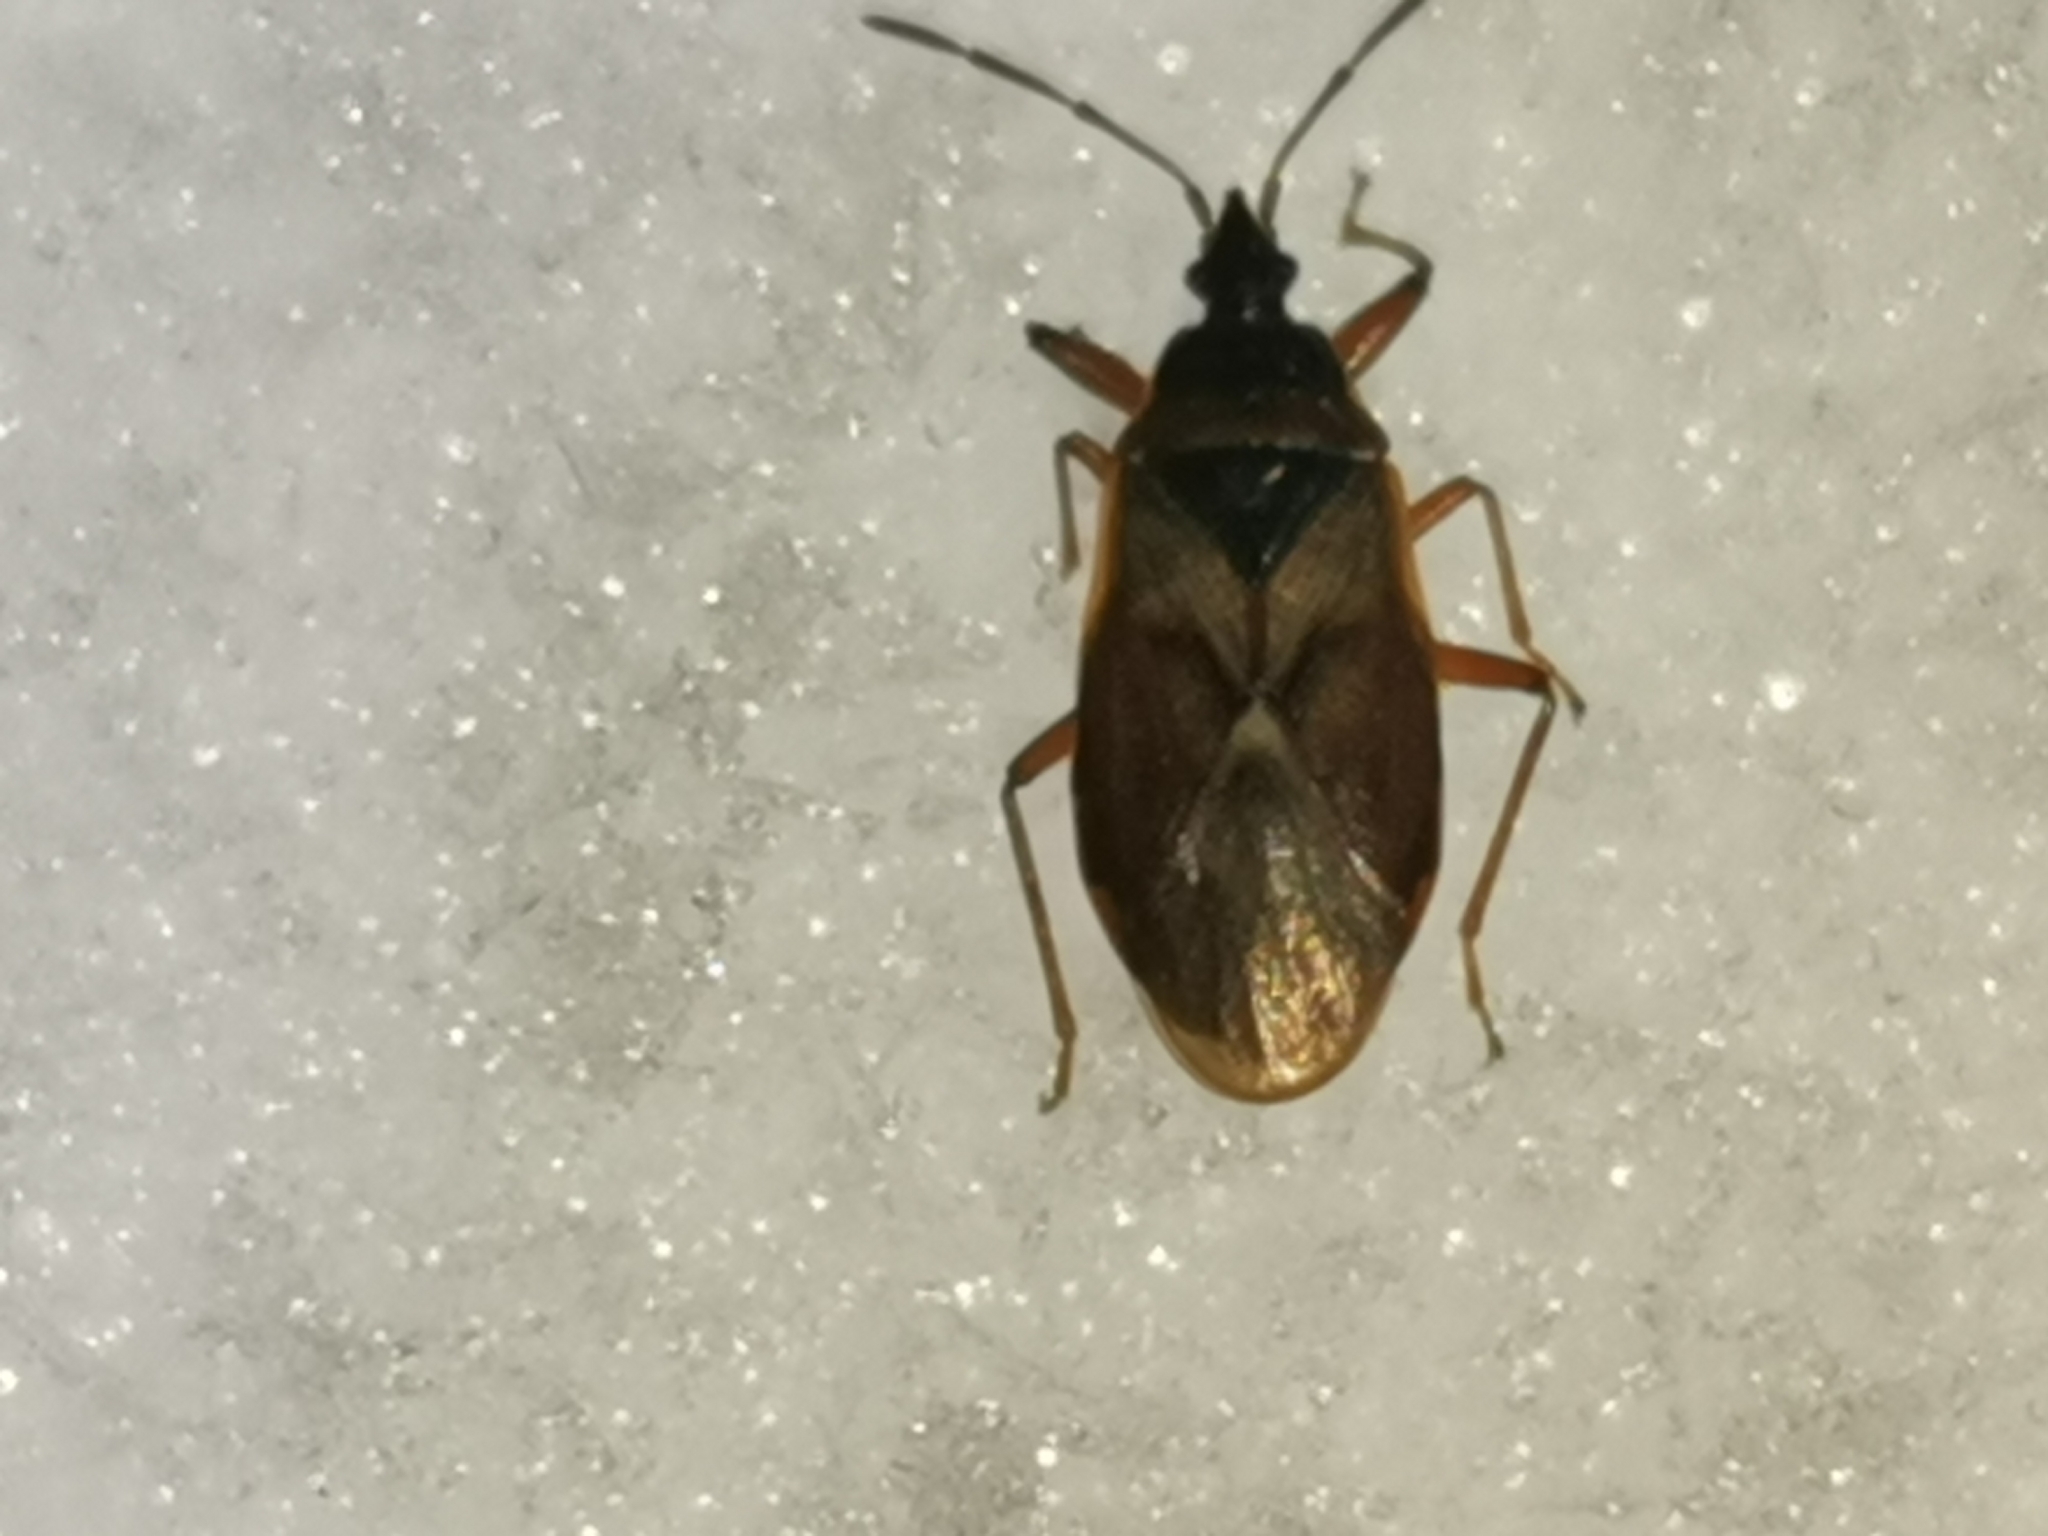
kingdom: Animalia
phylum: Arthropoda
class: Insecta
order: Hemiptera
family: Rhyparochromidae
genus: Gastrodes
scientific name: Gastrodes abietum
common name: Spruce cone bug
